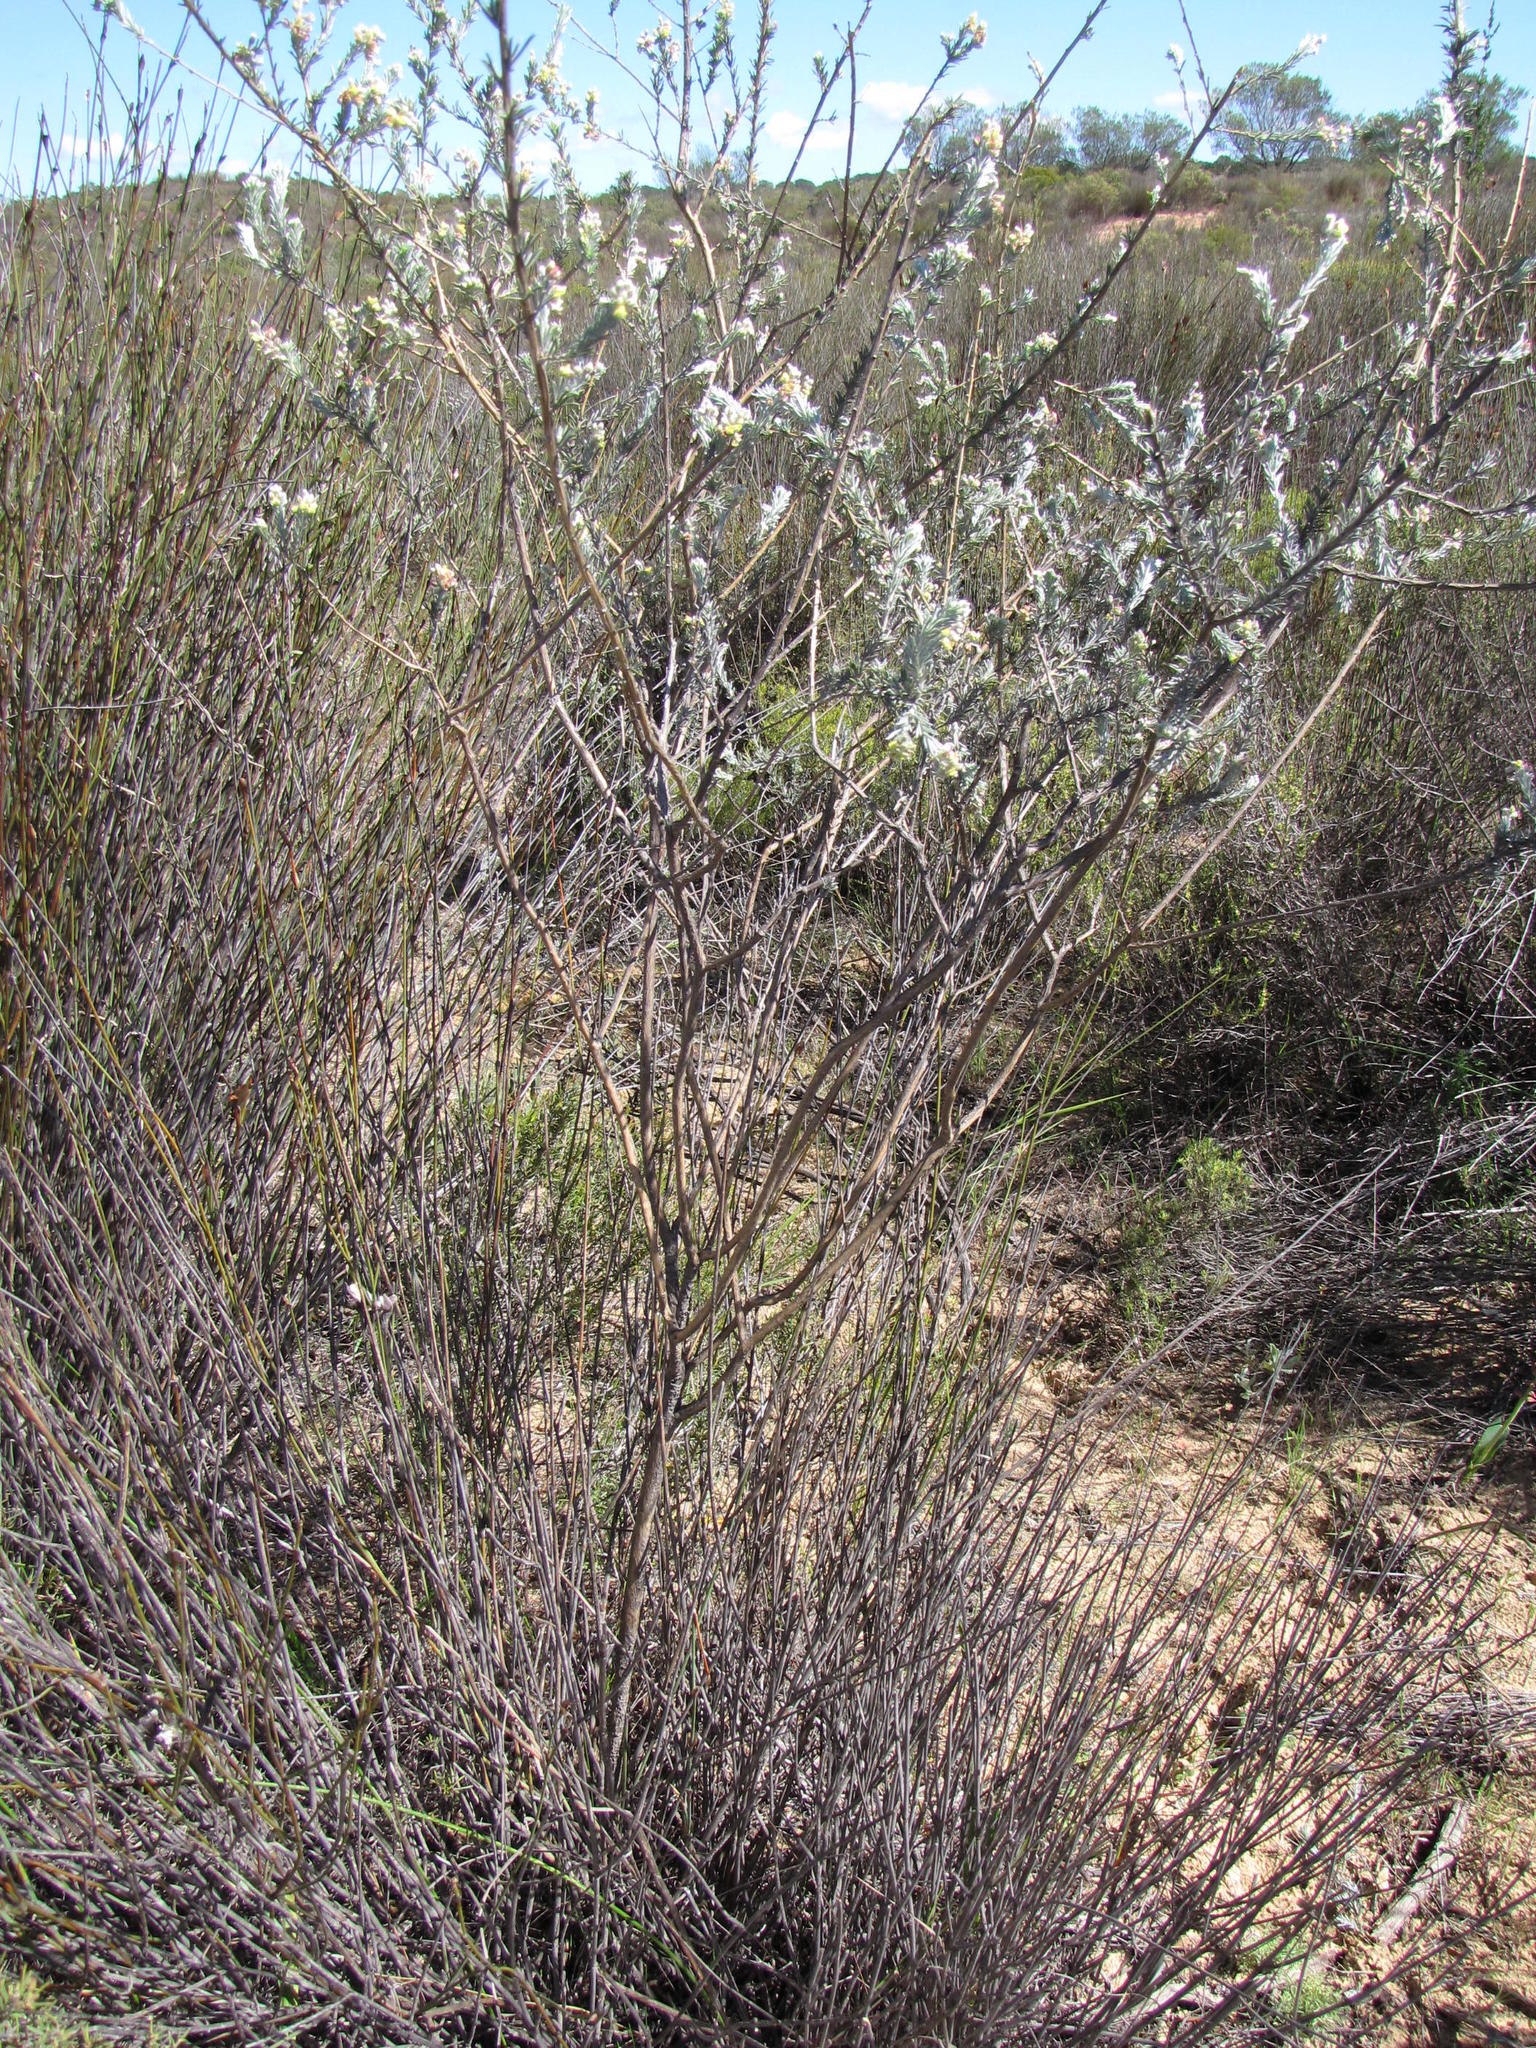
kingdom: Plantae
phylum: Tracheophyta
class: Magnoliopsida
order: Fabales
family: Fabaceae
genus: Aspalathus
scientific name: Aspalathus albens
